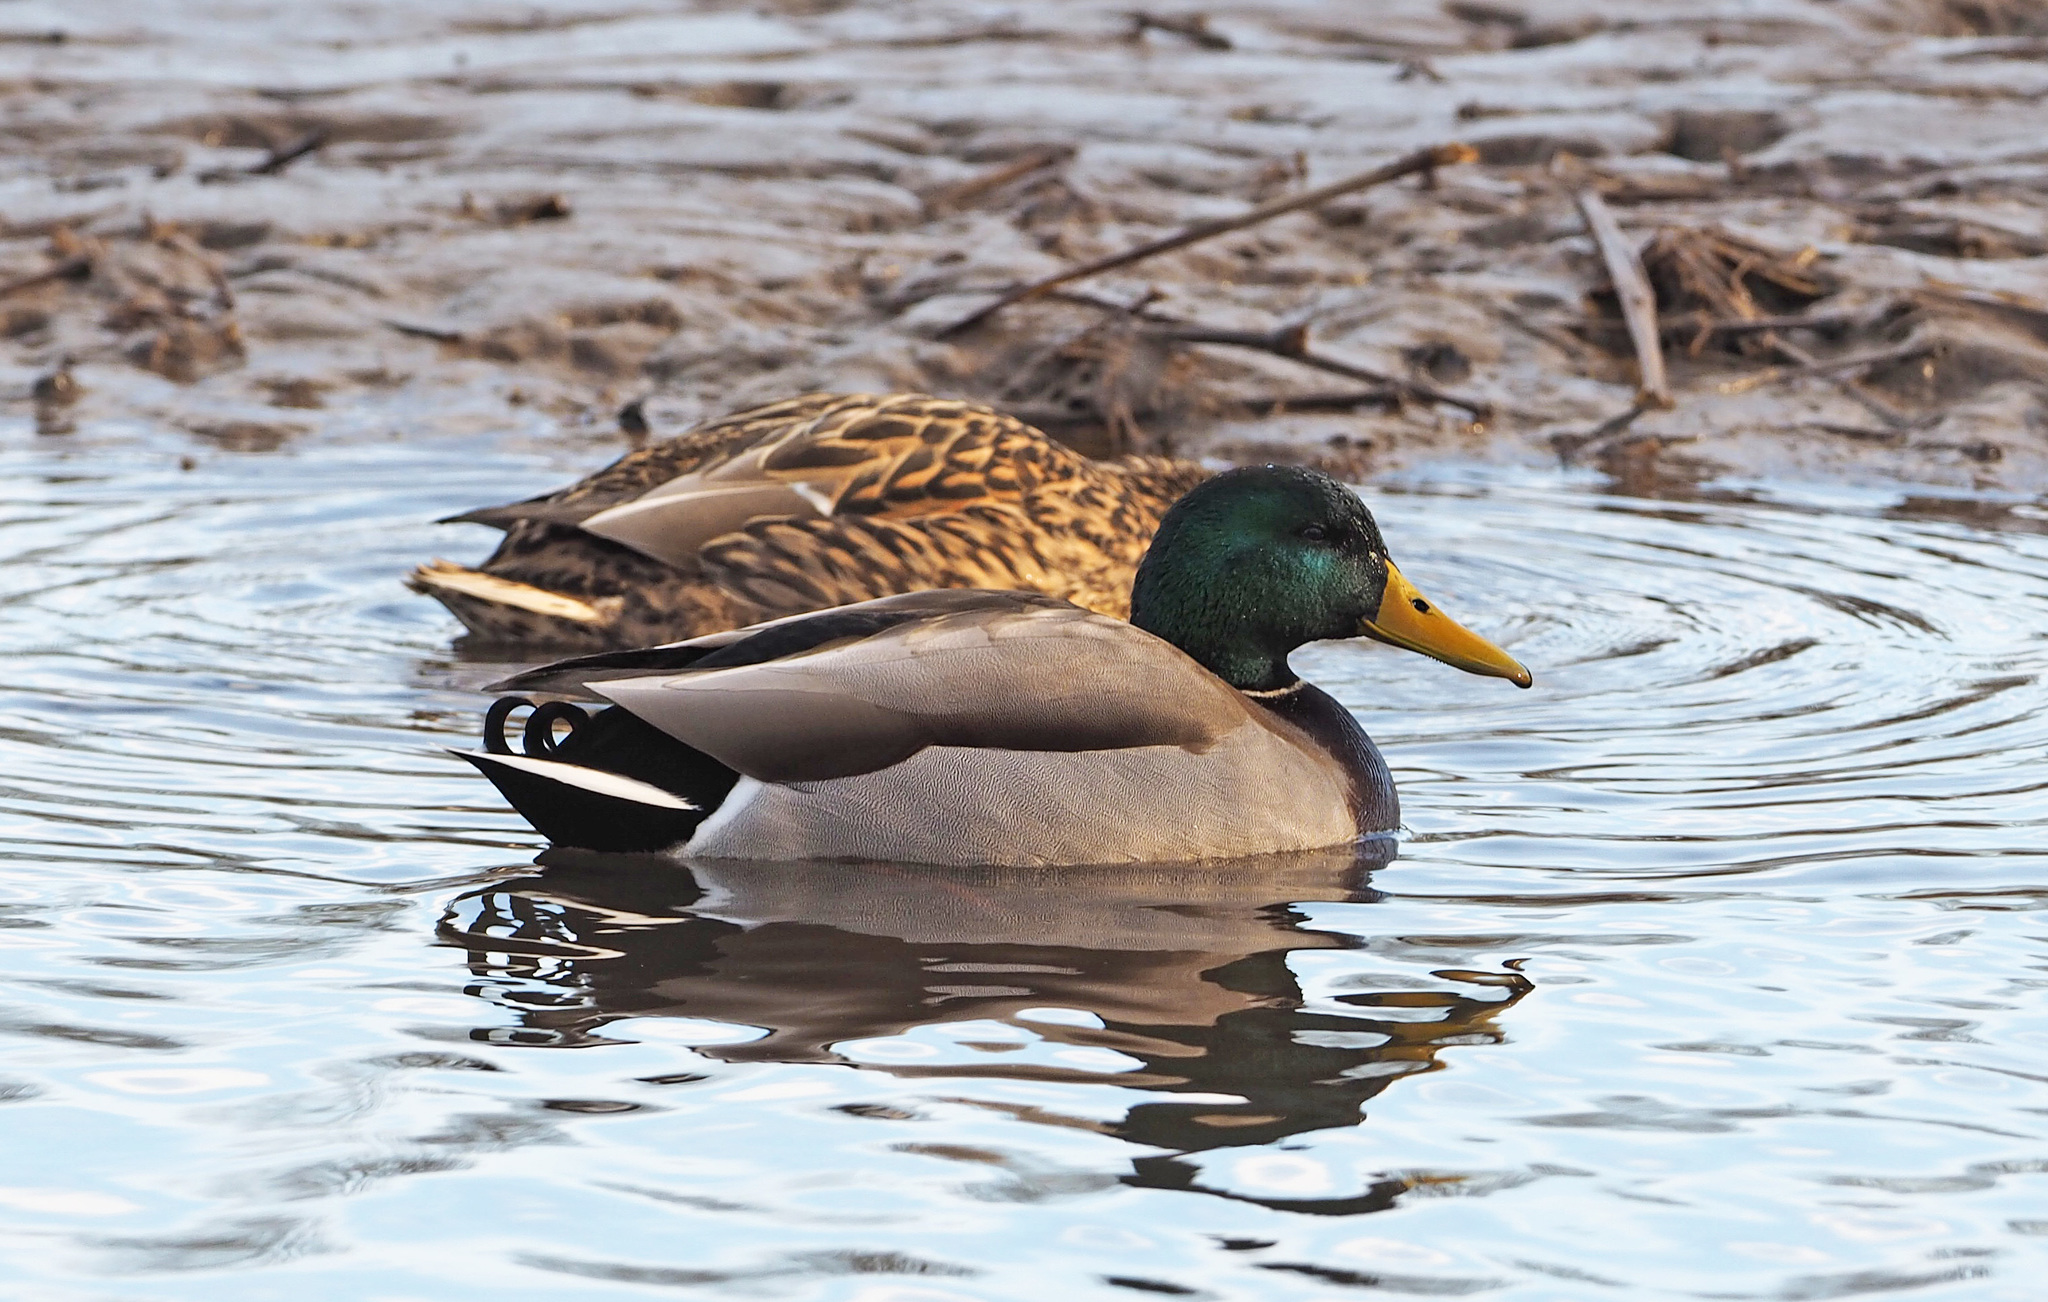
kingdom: Animalia
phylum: Chordata
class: Aves
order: Anseriformes
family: Anatidae
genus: Anas
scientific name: Anas platyrhynchos
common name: Mallard
